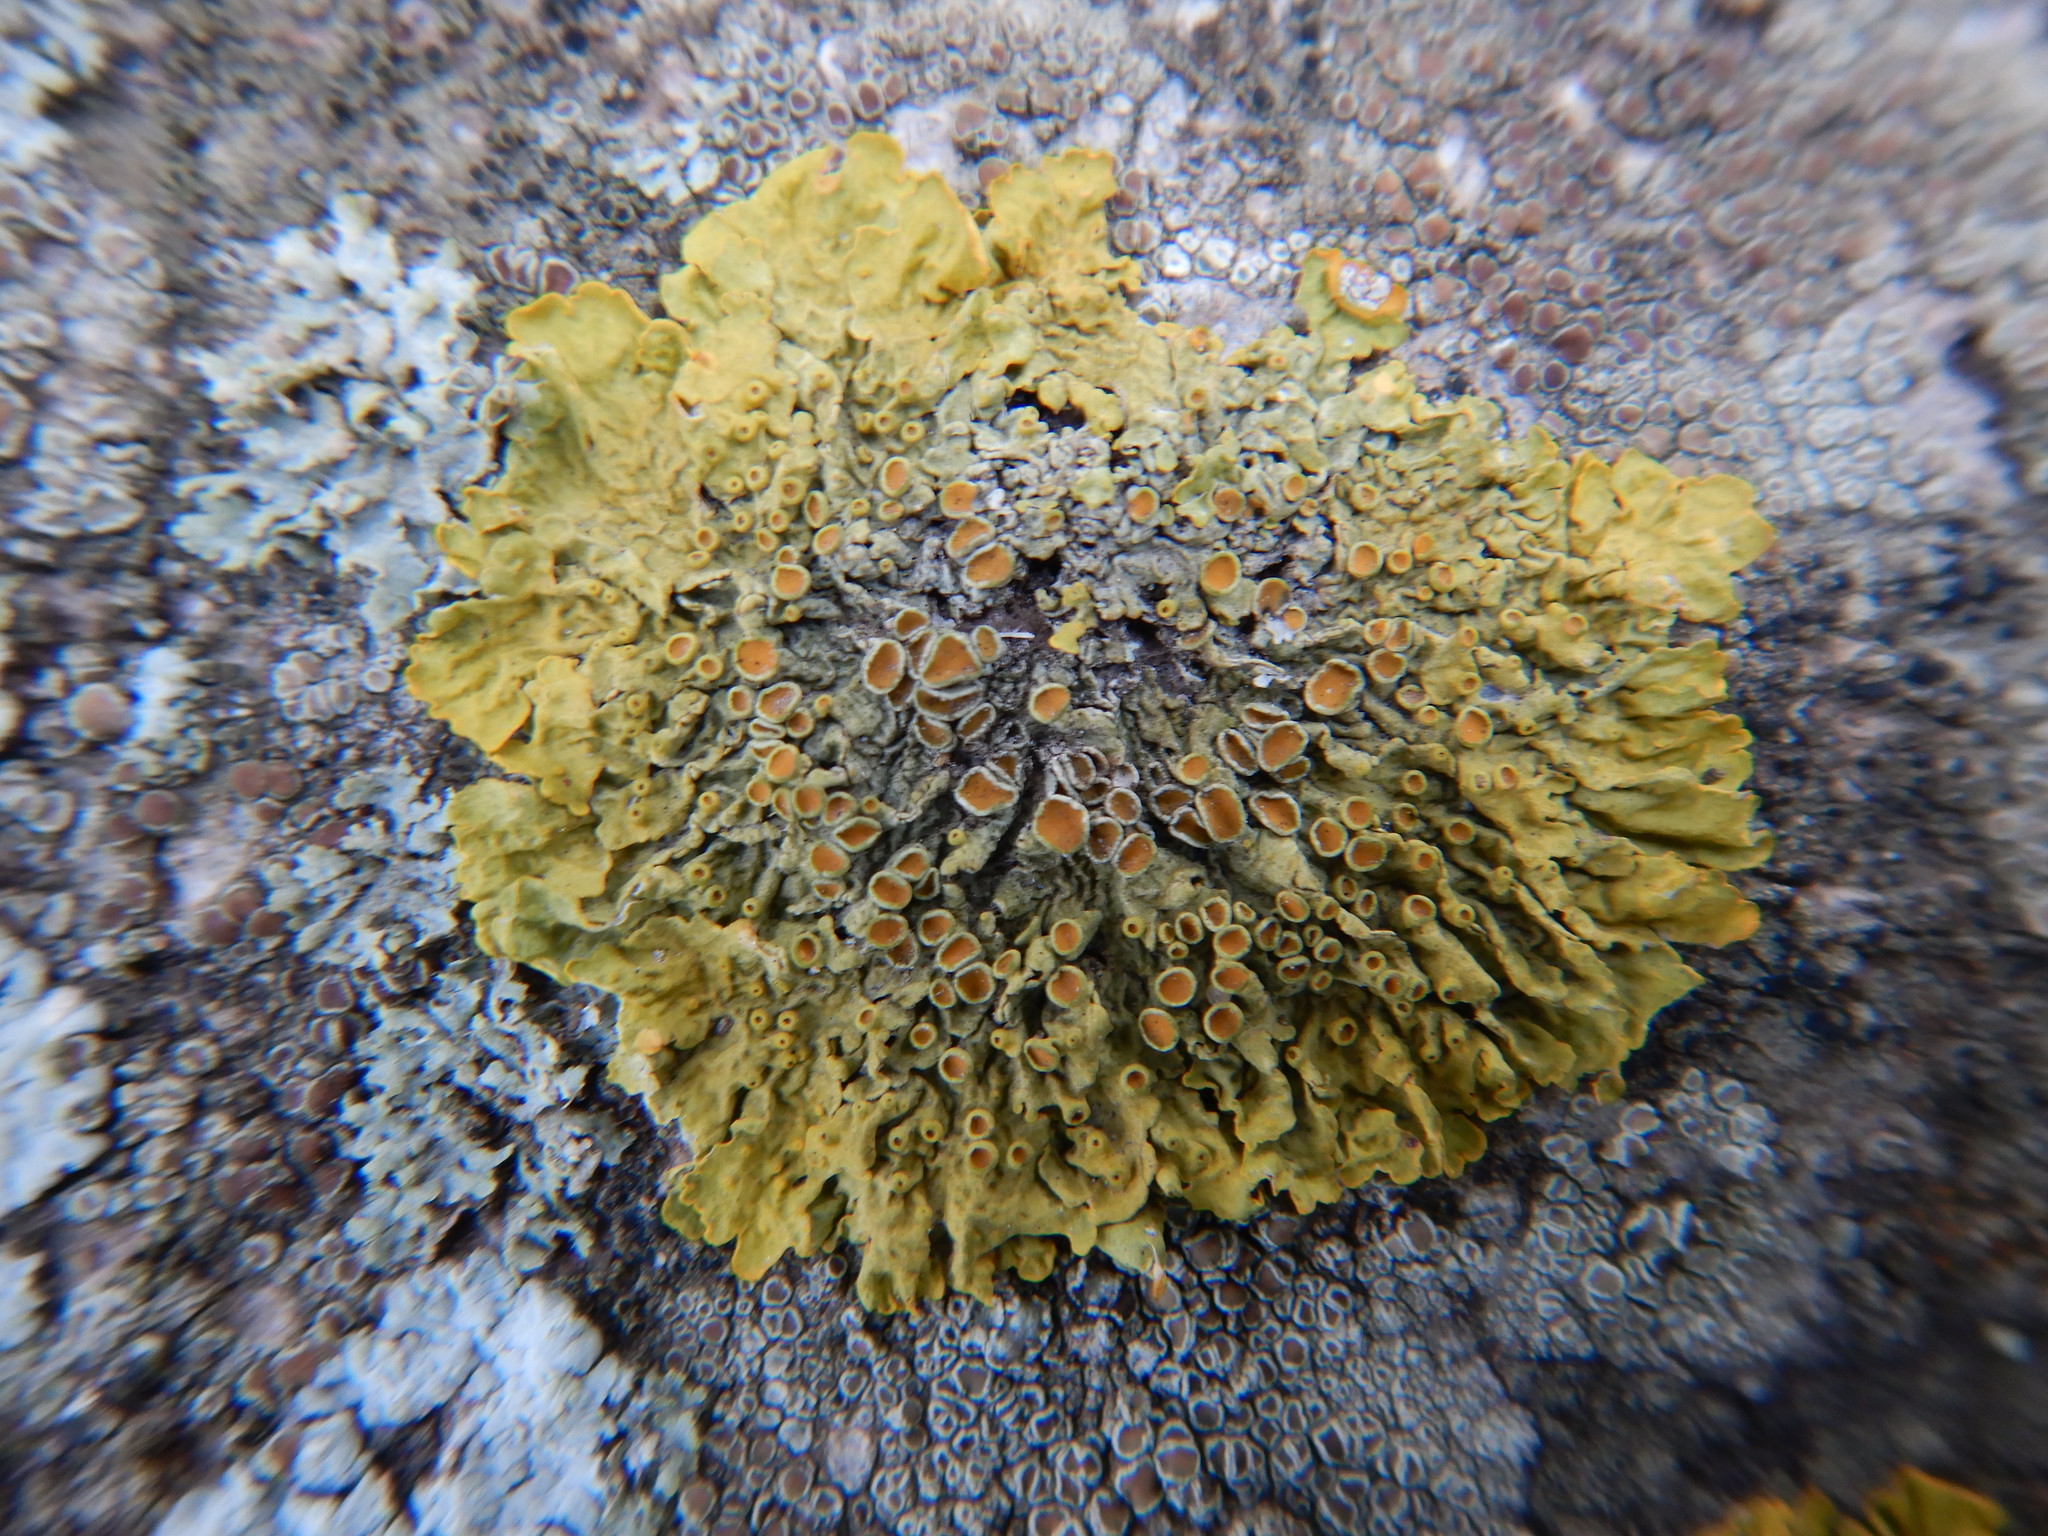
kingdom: Fungi
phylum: Ascomycota
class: Lecanoromycetes
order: Teloschistales
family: Teloschistaceae
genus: Xanthoria
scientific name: Xanthoria parietina
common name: Common orange lichen
